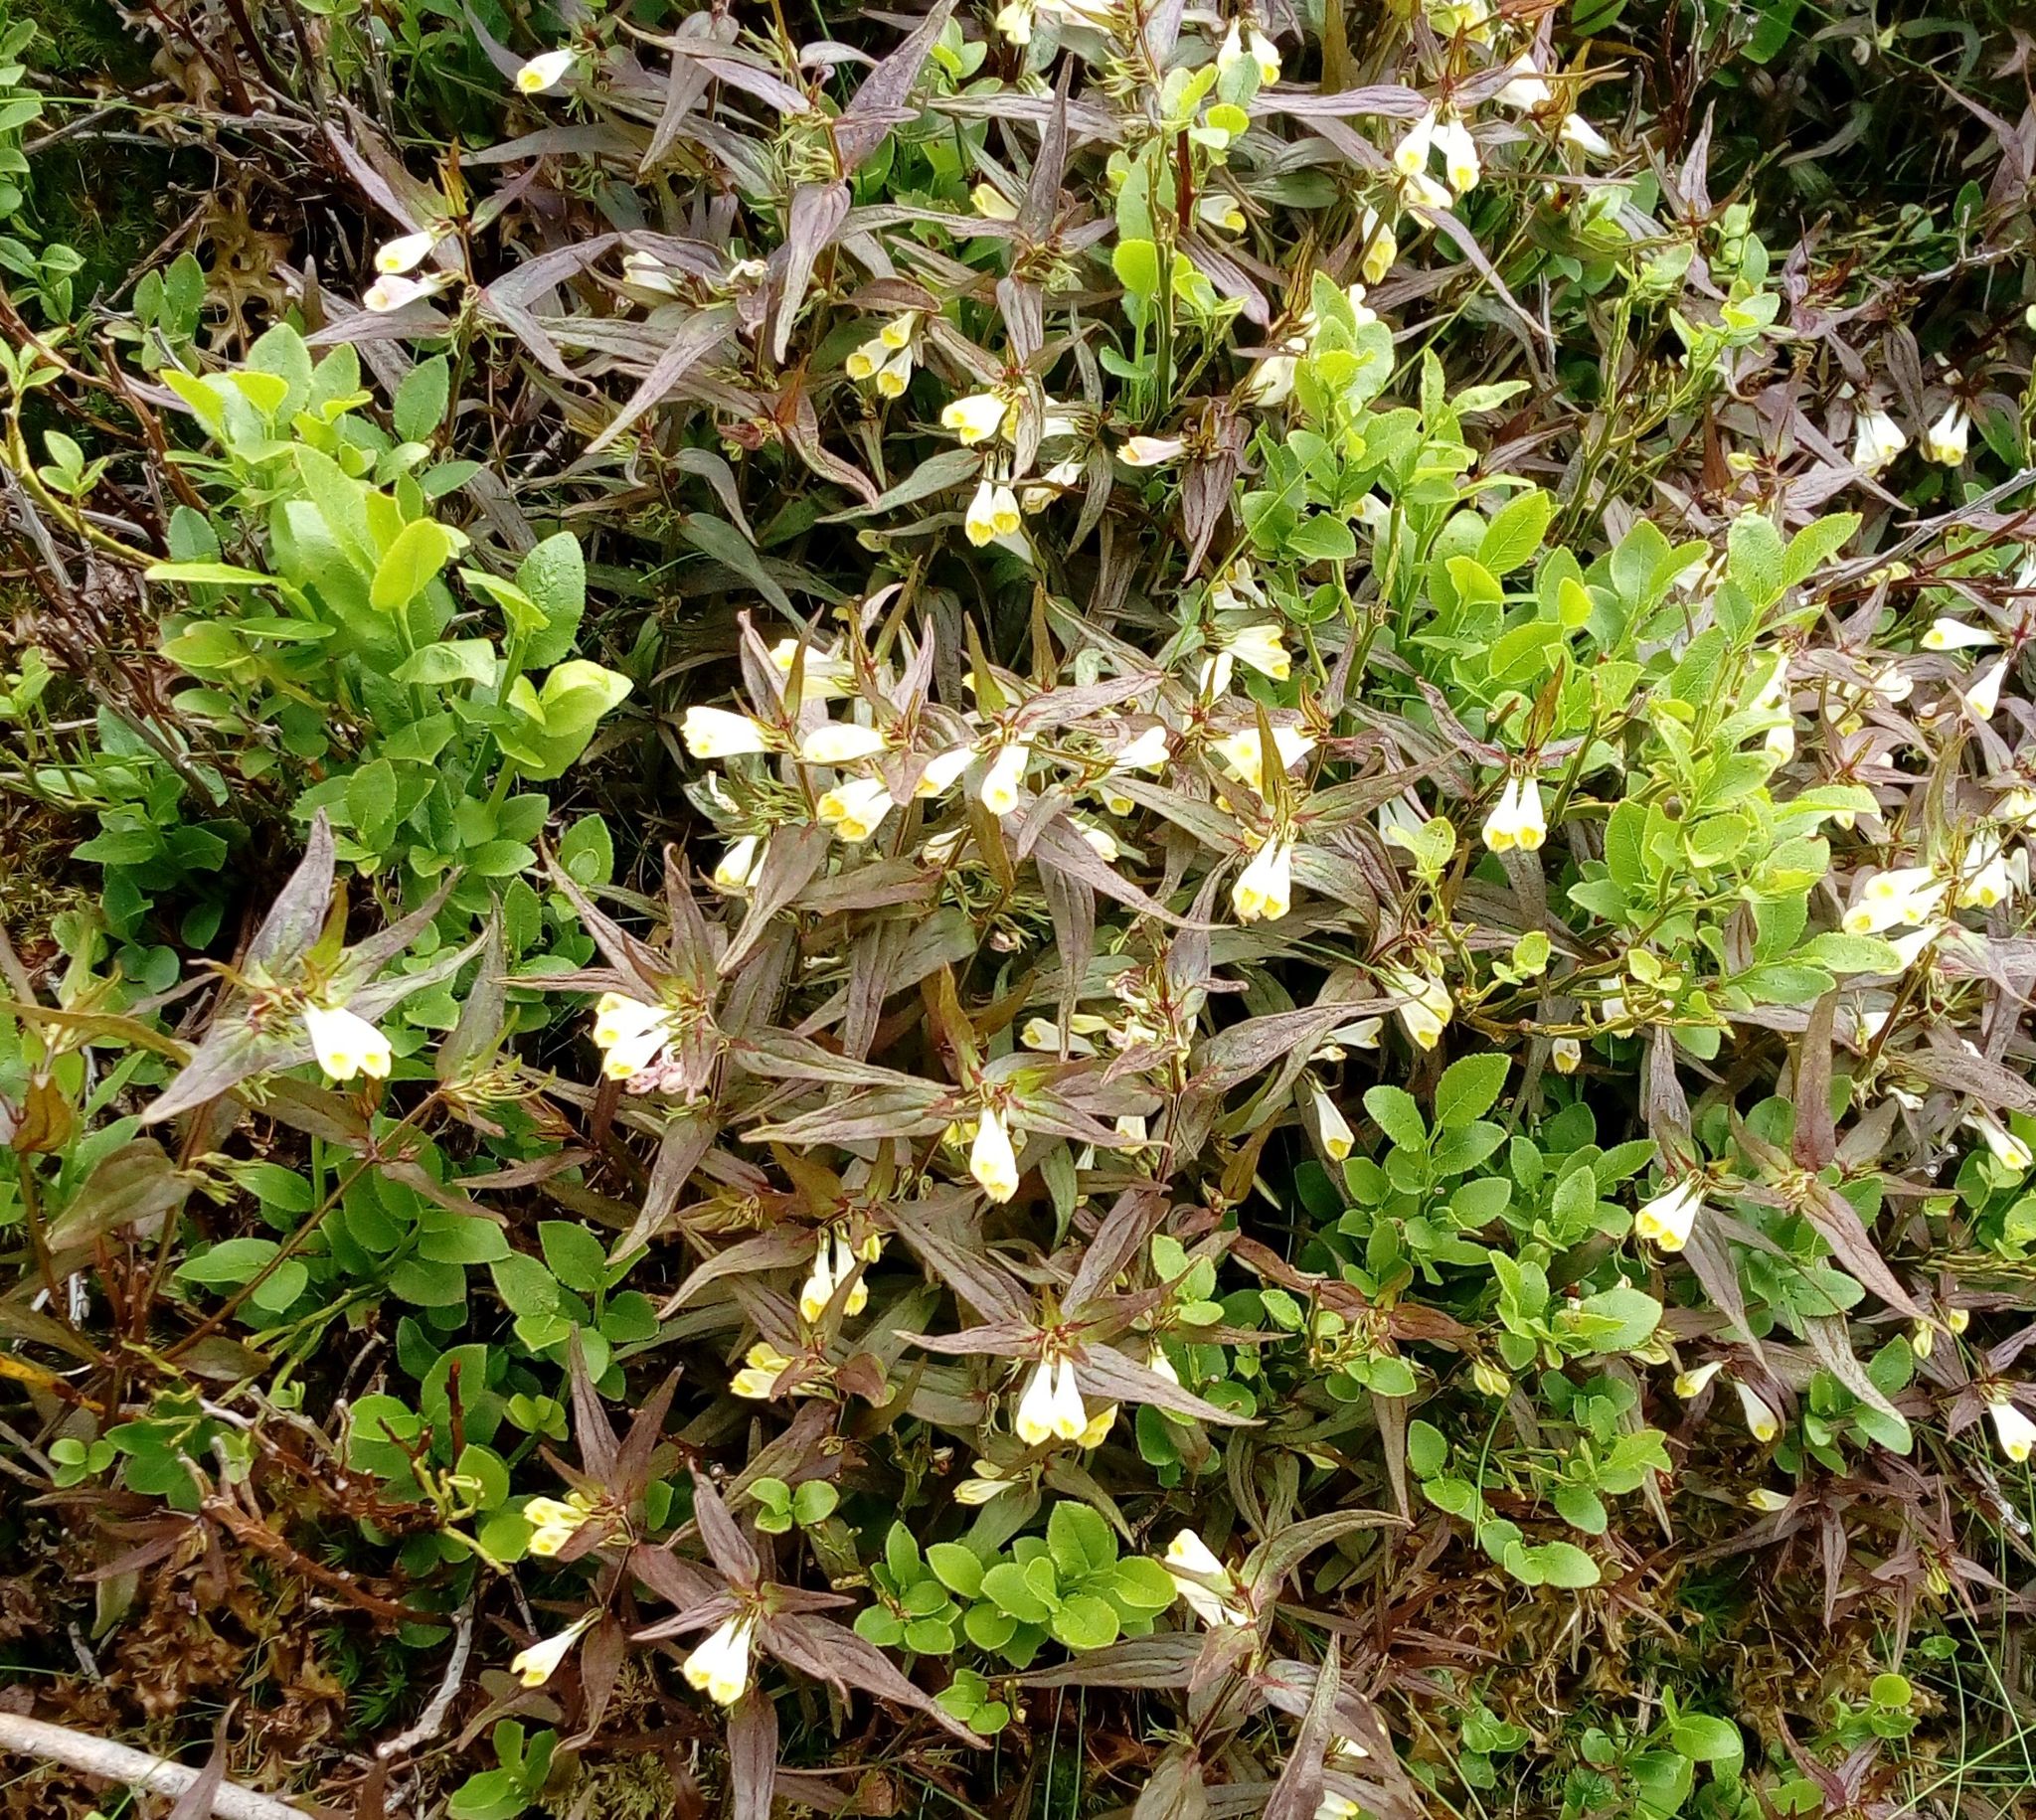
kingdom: Plantae
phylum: Tracheophyta
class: Magnoliopsida
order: Lamiales
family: Orobanchaceae
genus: Melampyrum
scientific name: Melampyrum pratense
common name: Common cow-wheat
